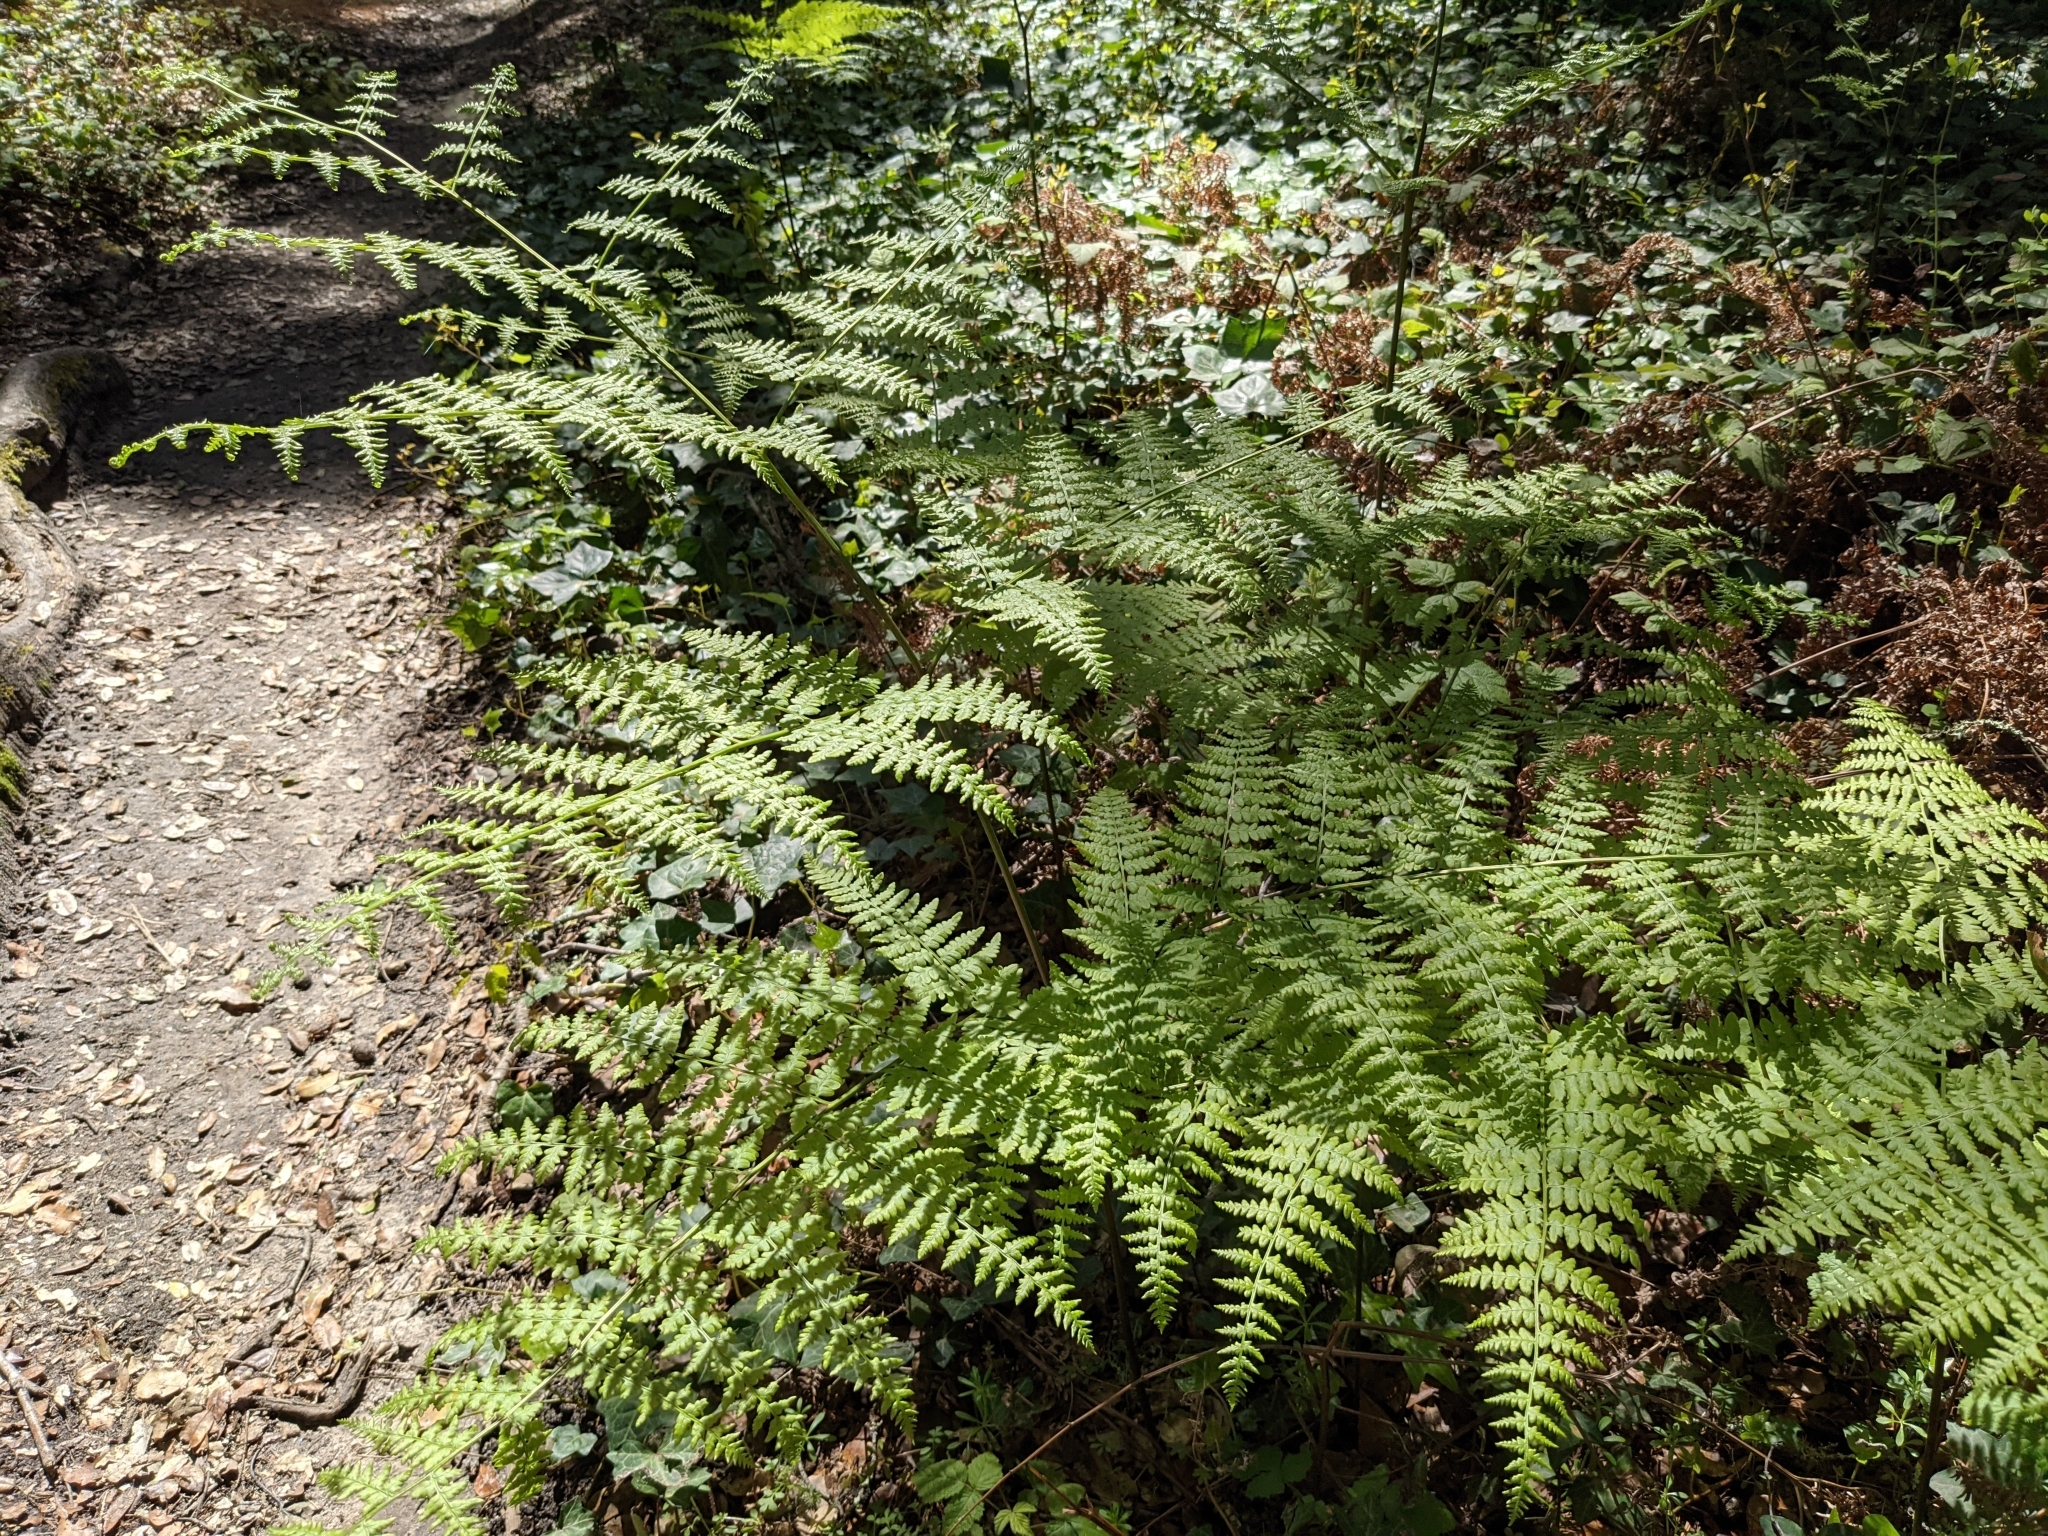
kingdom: Plantae
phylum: Tracheophyta
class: Polypodiopsida
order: Polypodiales
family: Dennstaedtiaceae
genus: Pteridium
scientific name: Pteridium aquilinum
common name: Bracken
